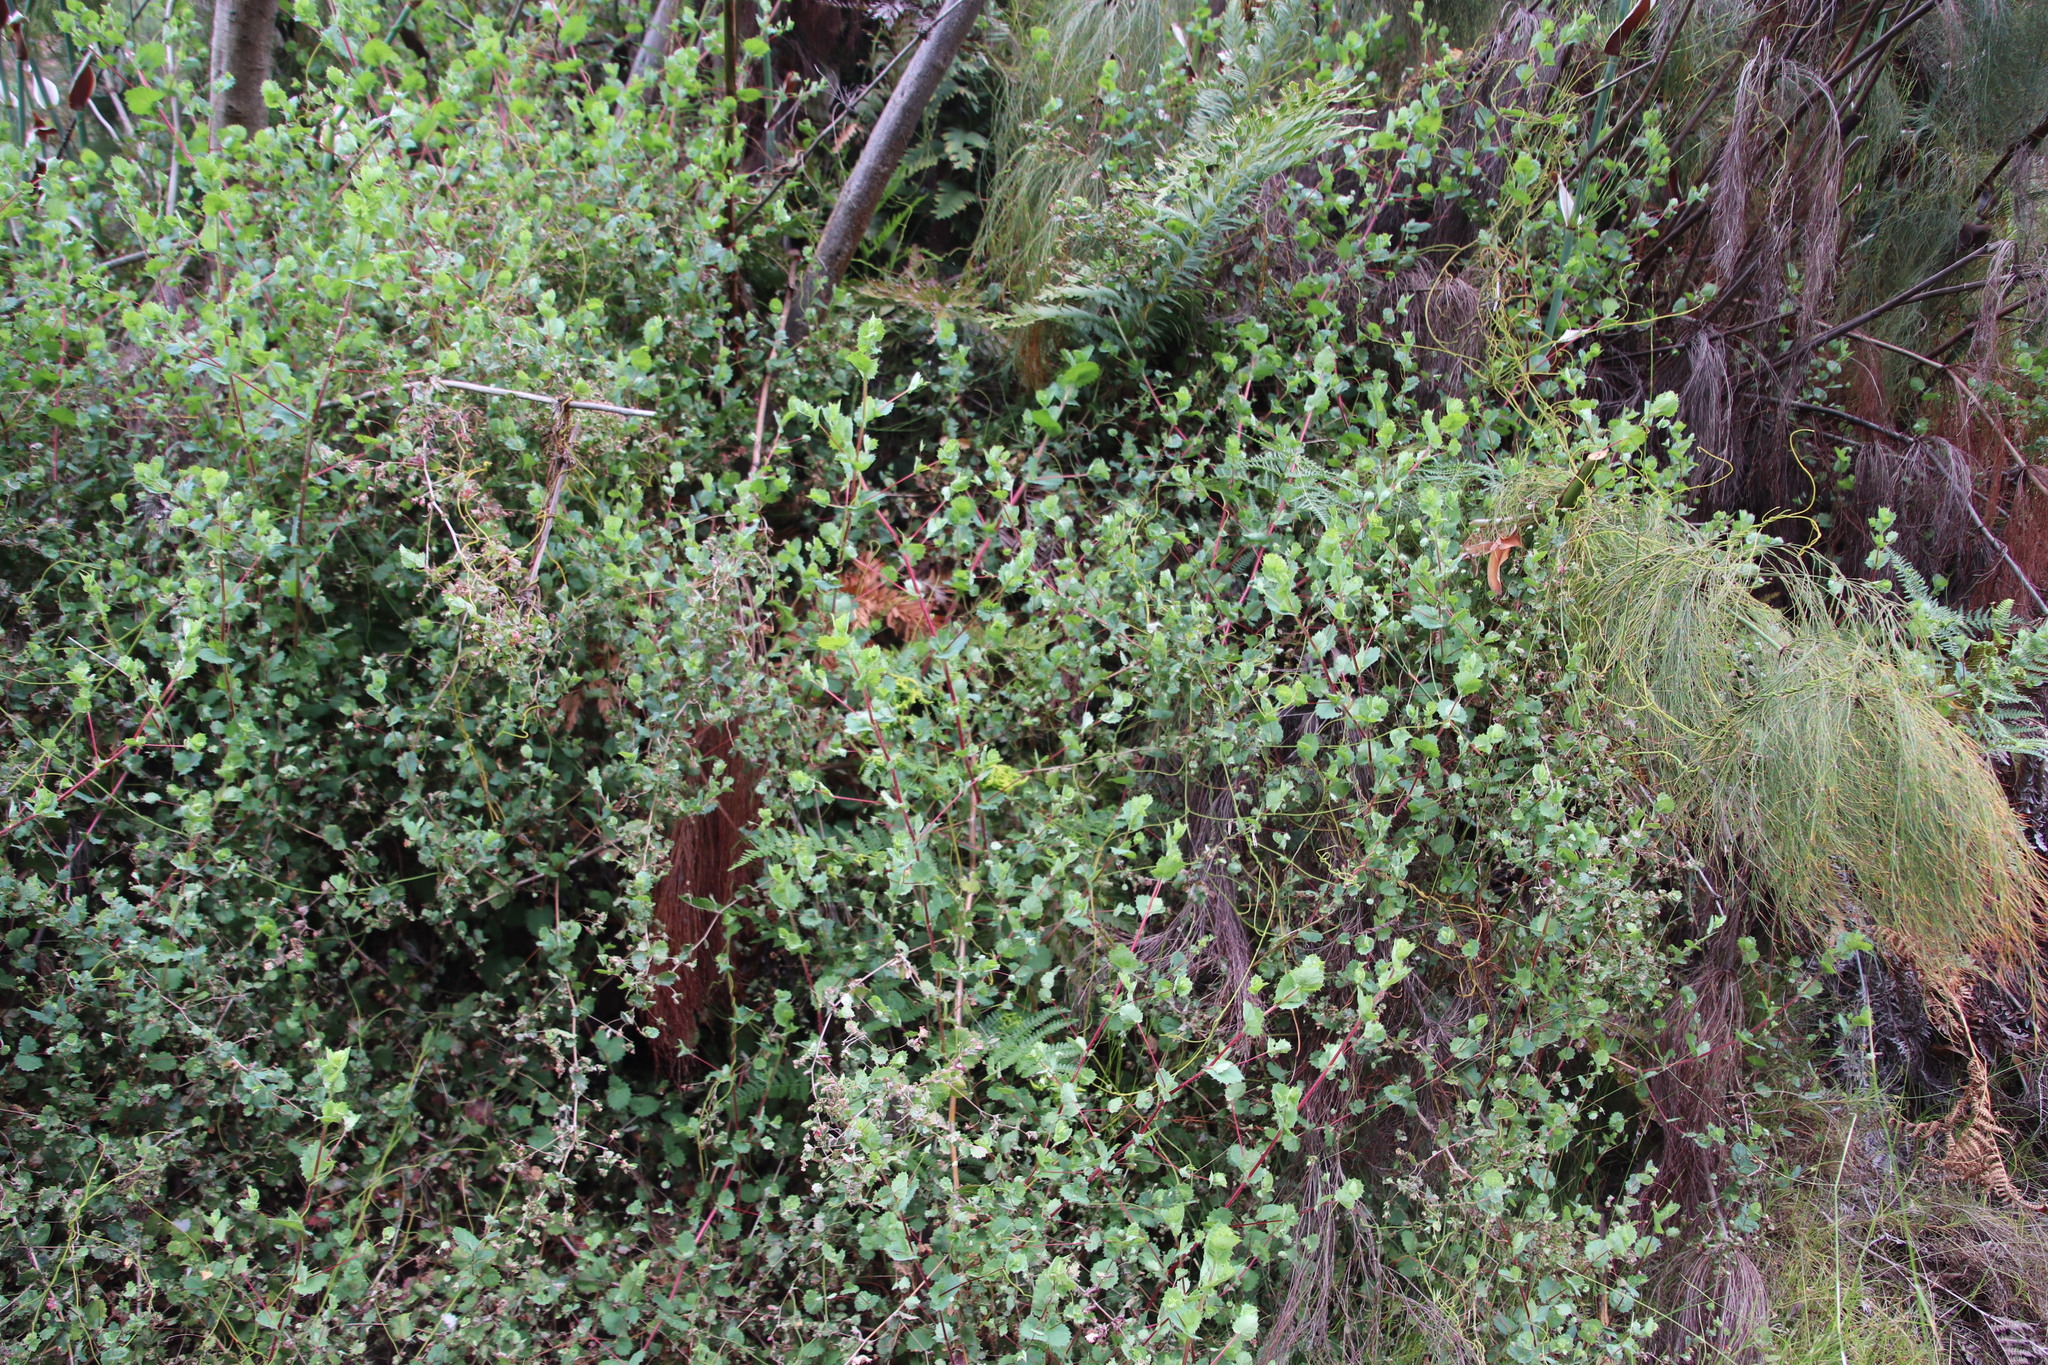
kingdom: Plantae
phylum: Tracheophyta
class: Magnoliopsida
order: Rosales
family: Rosaceae
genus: Cliffortia
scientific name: Cliffortia pilifera
